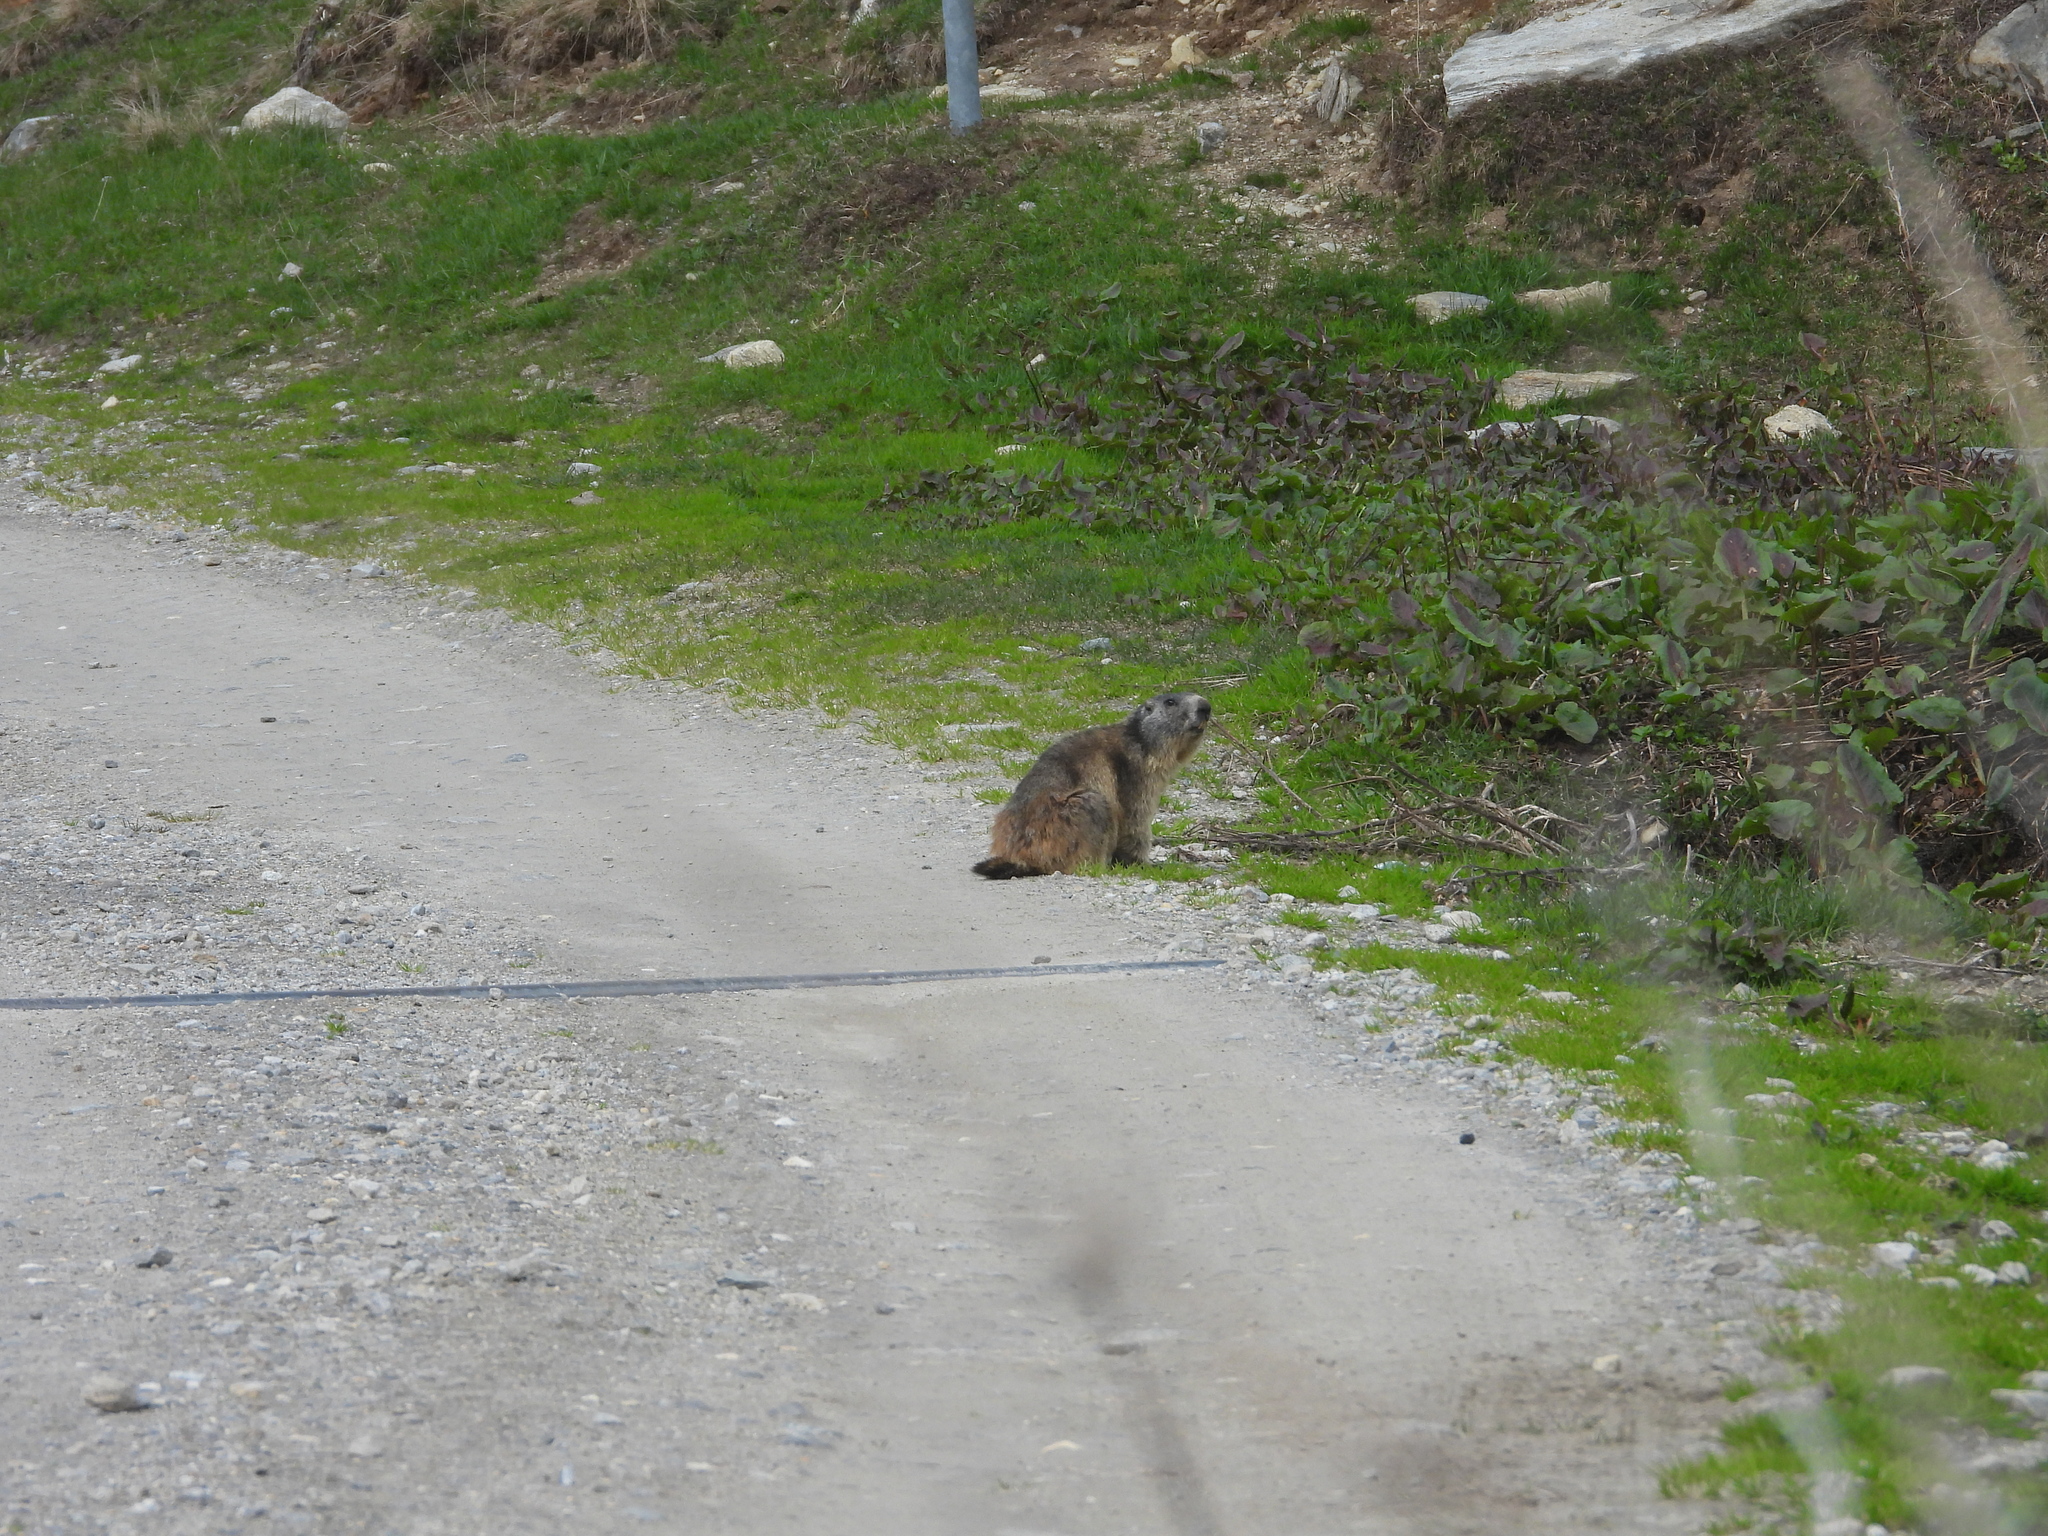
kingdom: Animalia
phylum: Chordata
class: Mammalia
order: Rodentia
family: Sciuridae
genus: Marmota
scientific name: Marmota marmota
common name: Alpine marmot
